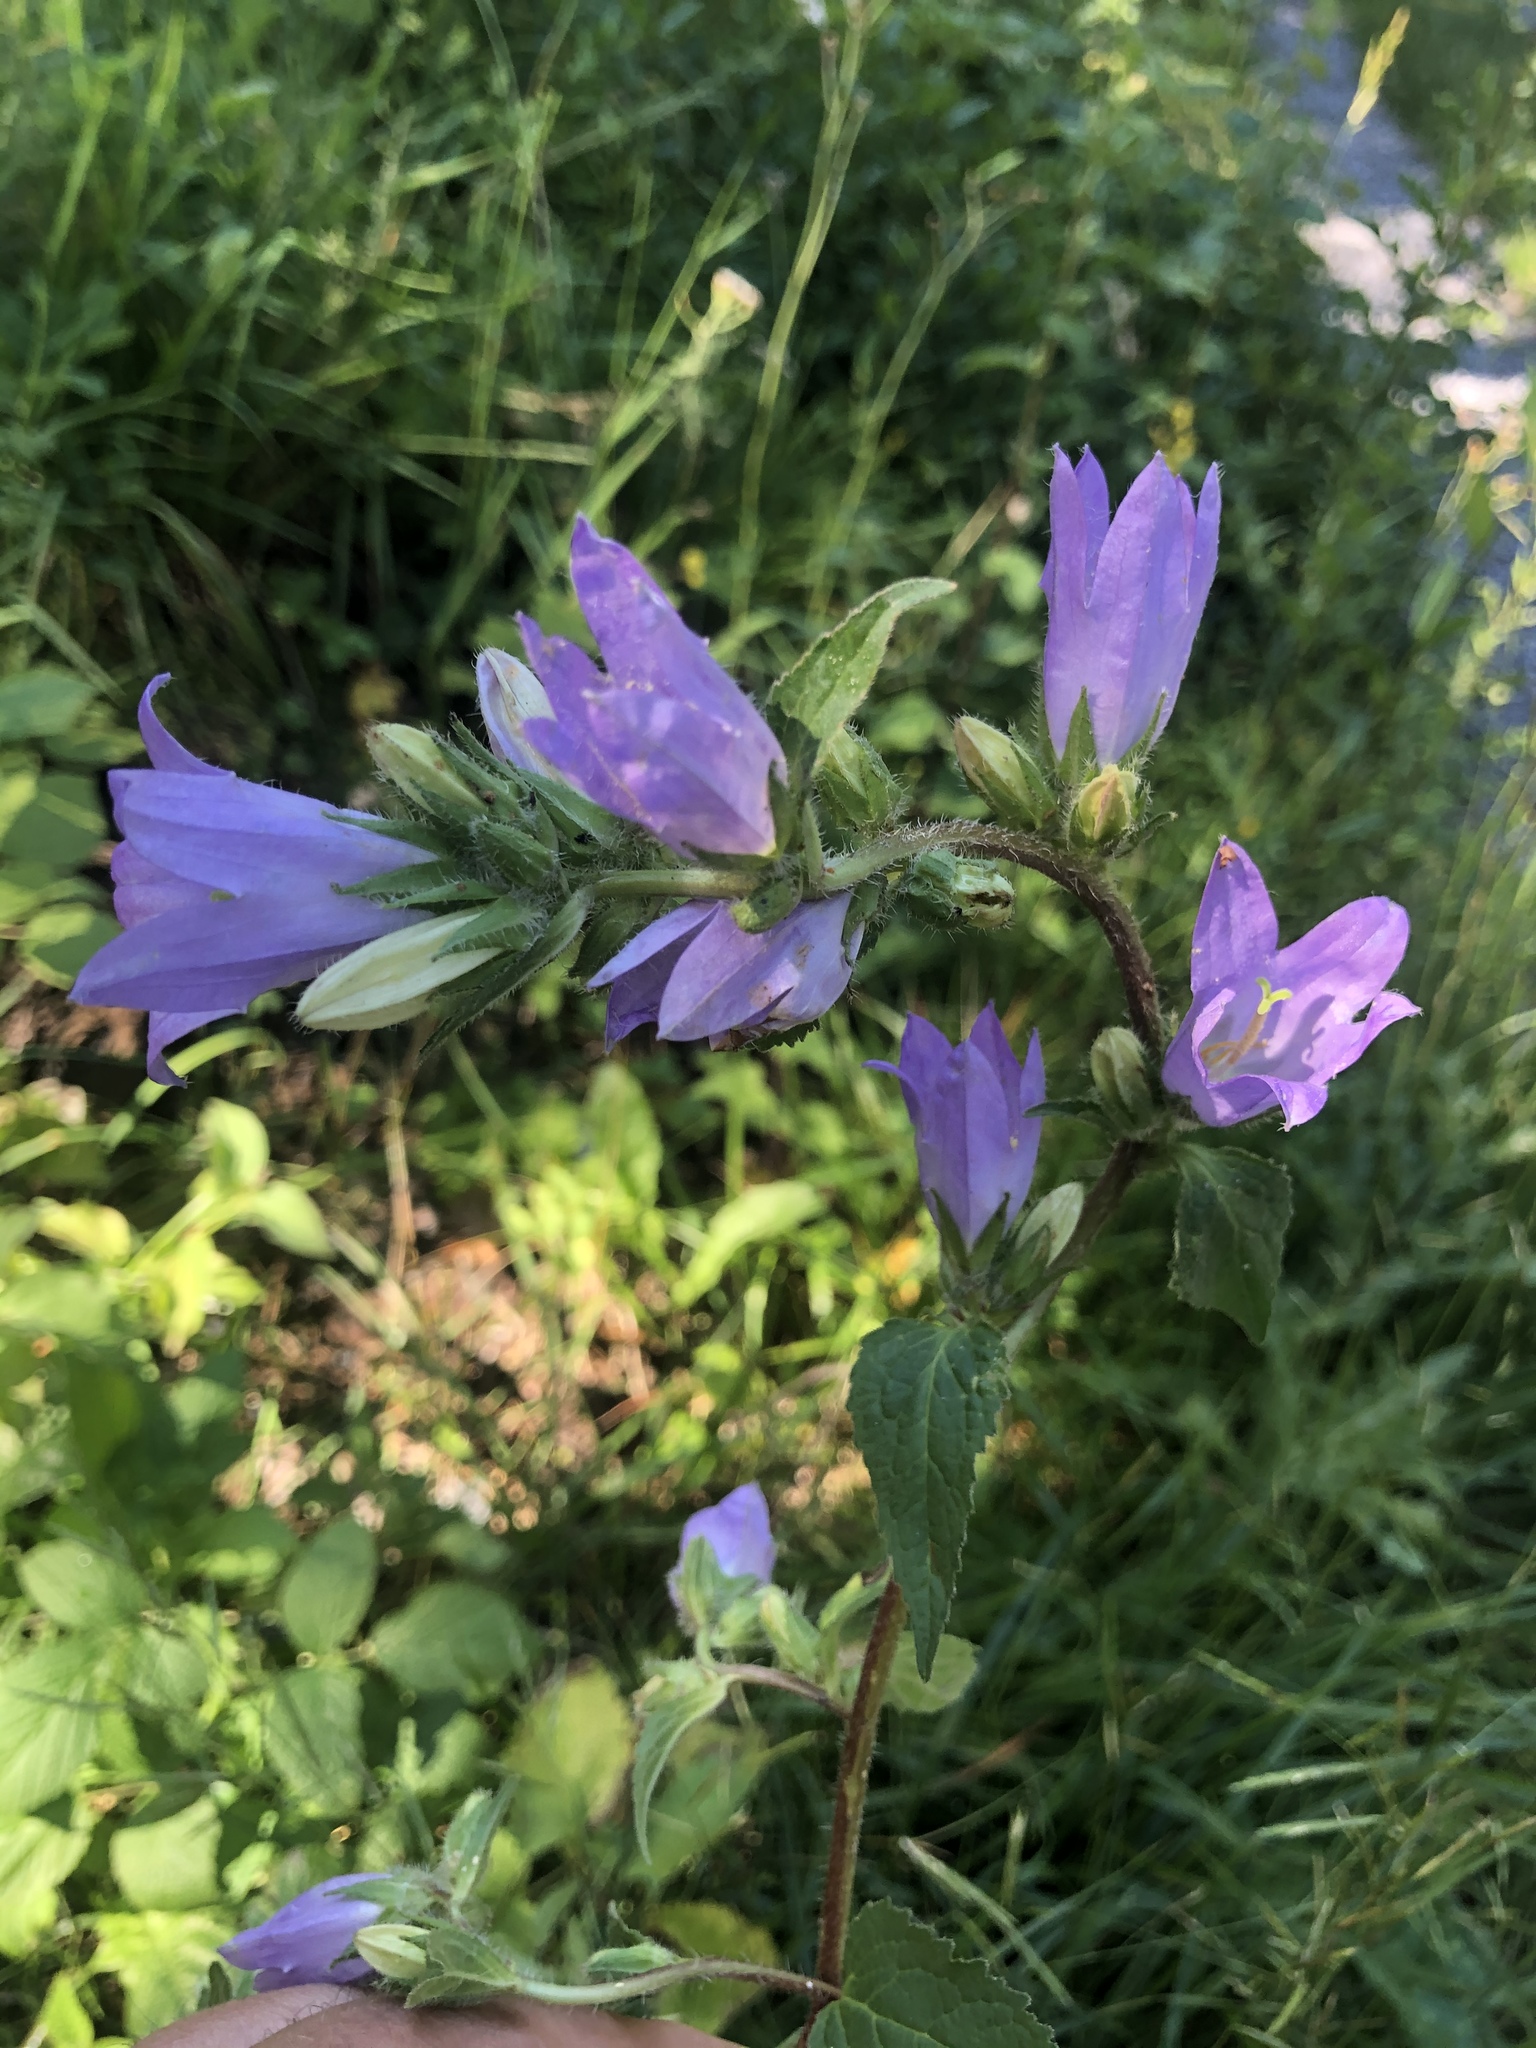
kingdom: Plantae
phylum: Tracheophyta
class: Magnoliopsida
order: Asterales
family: Campanulaceae
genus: Campanula
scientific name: Campanula trachelium
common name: Nettle-leaved bellflower
